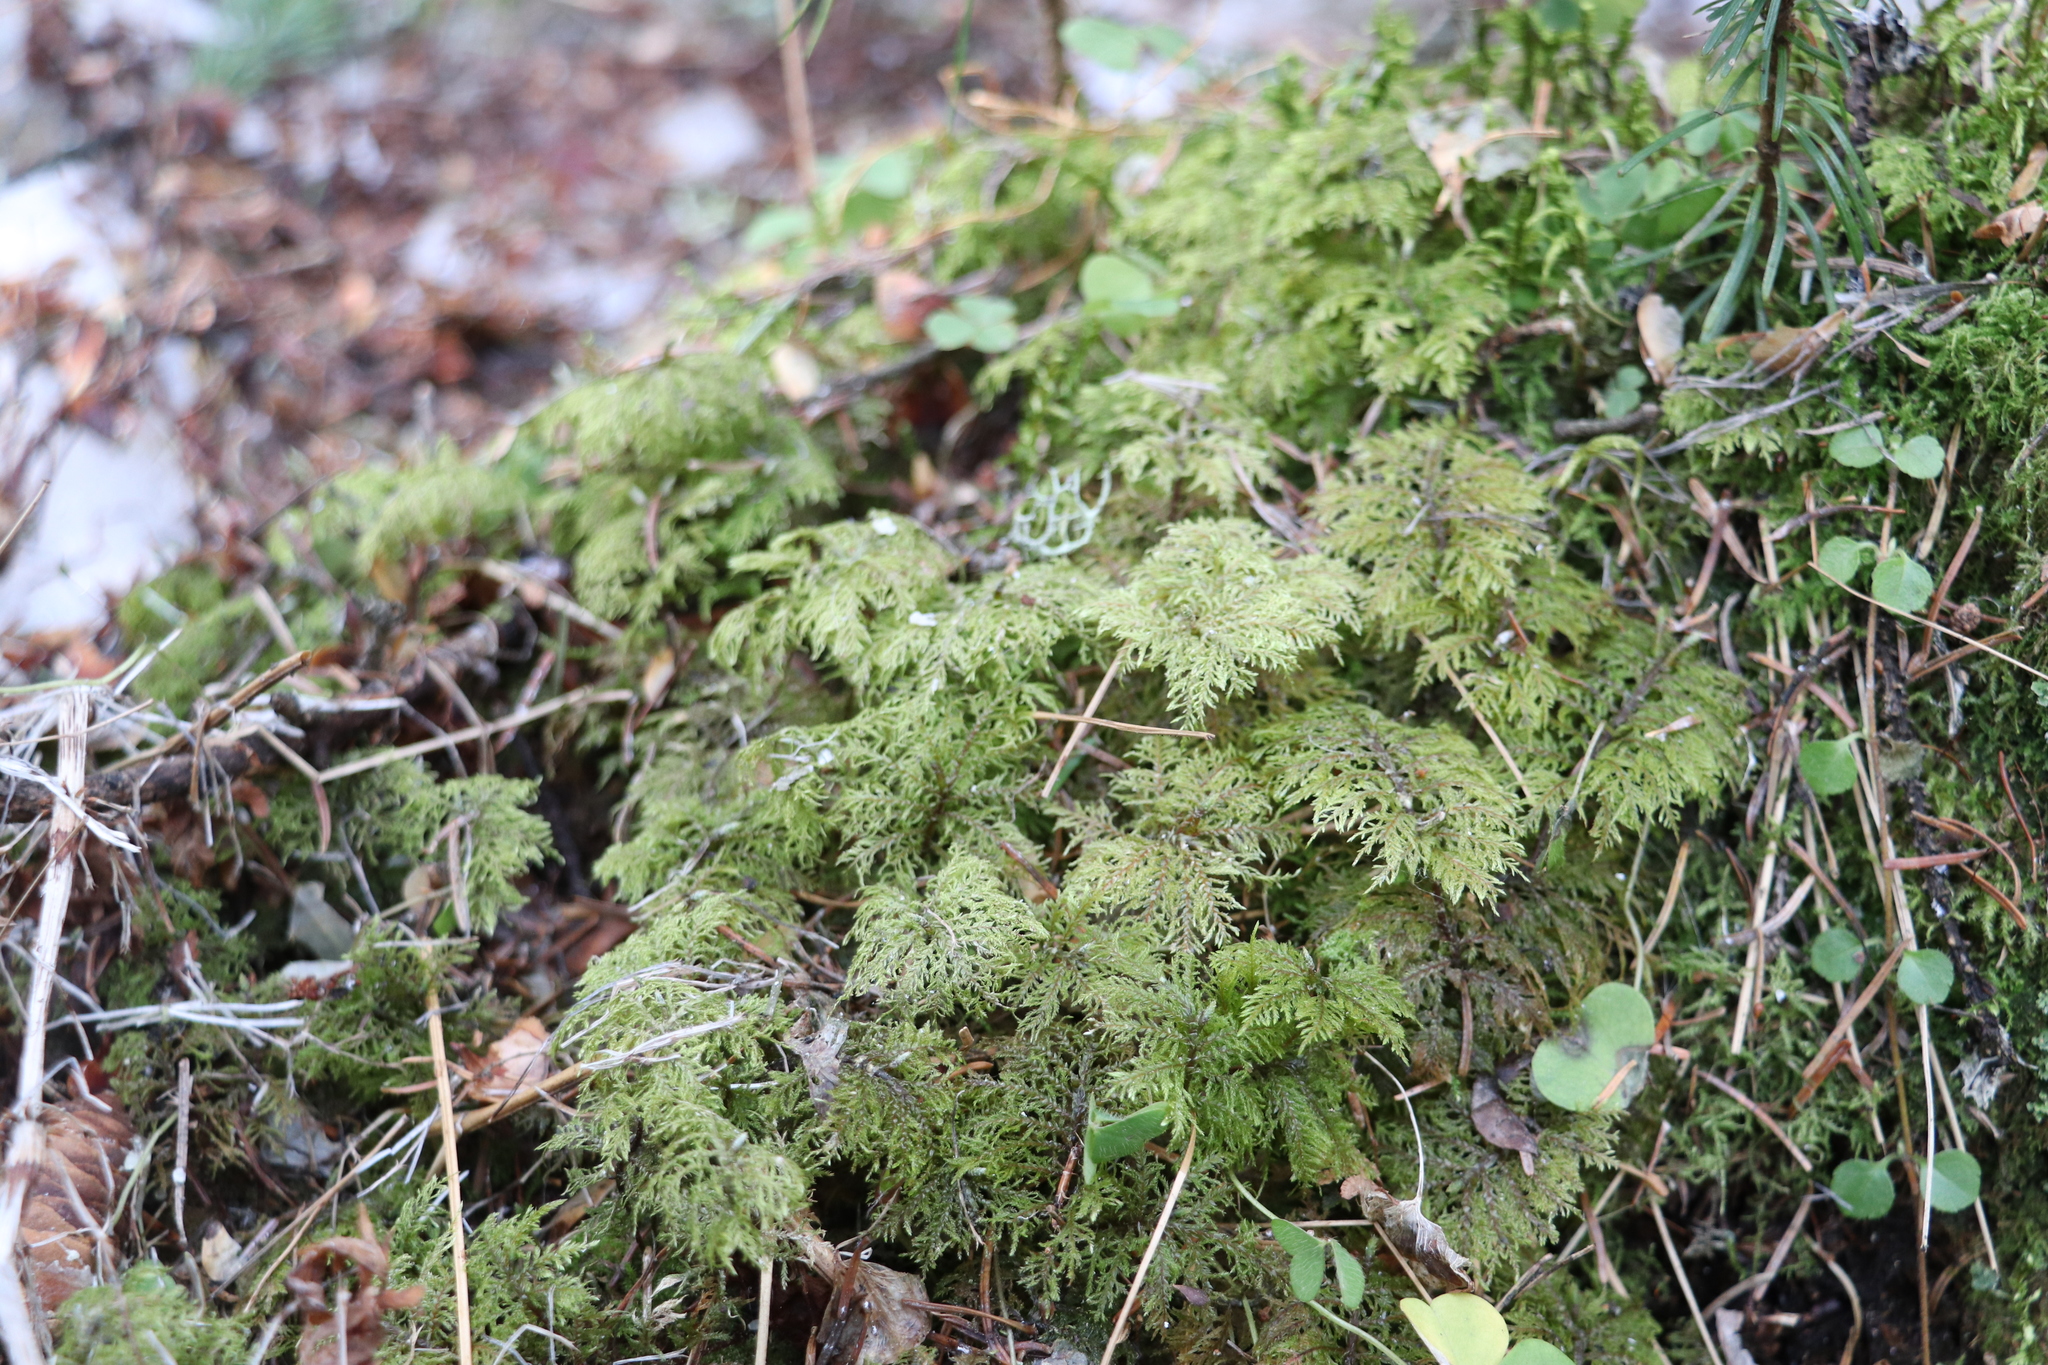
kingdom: Plantae
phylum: Bryophyta
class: Bryopsida
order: Hypnales
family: Hylocomiaceae
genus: Hylocomium
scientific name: Hylocomium splendens
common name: Stairstep moss
